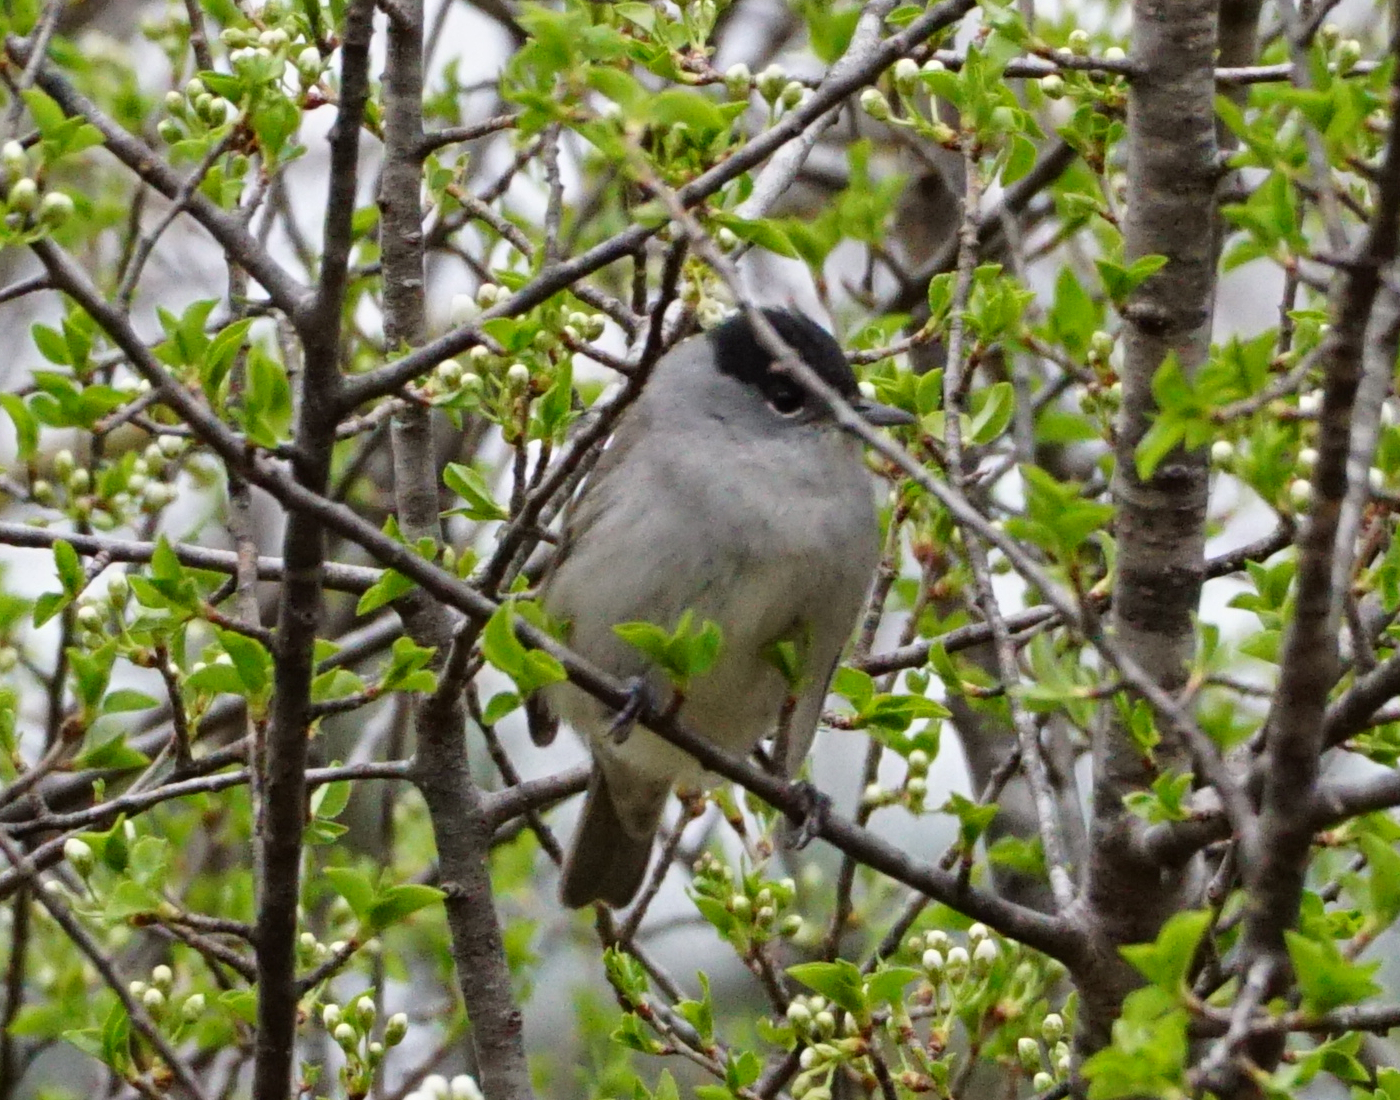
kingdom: Animalia
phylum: Chordata
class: Aves
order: Passeriformes
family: Sylviidae
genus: Sylvia
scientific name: Sylvia atricapilla
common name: Eurasian blackcap
